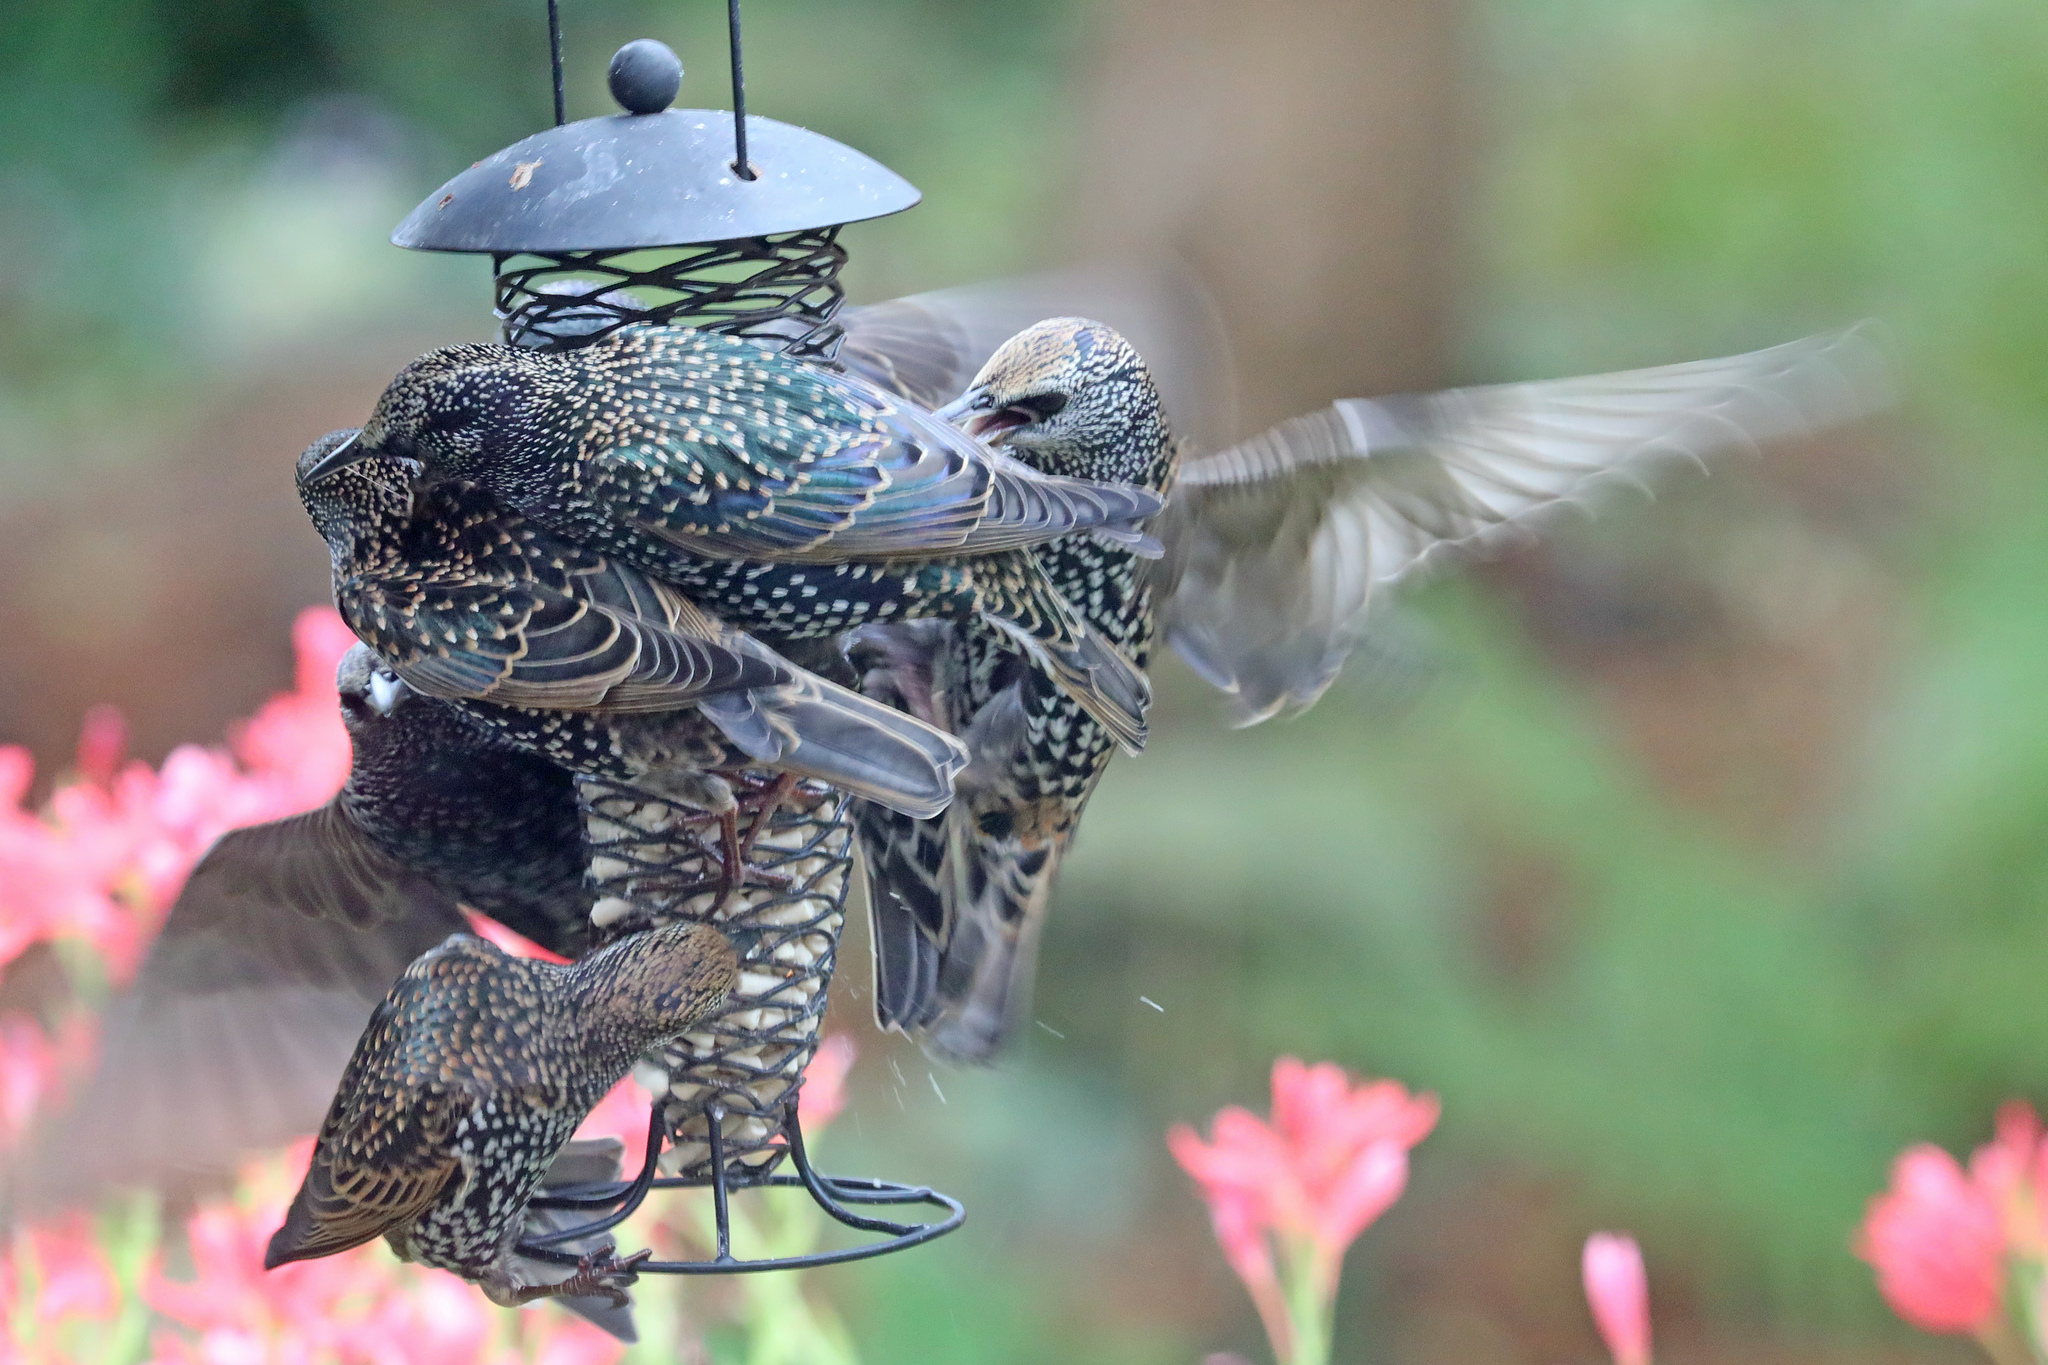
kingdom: Animalia
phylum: Chordata
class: Aves
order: Passeriformes
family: Sturnidae
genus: Sturnus
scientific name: Sturnus vulgaris
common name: Common starling
